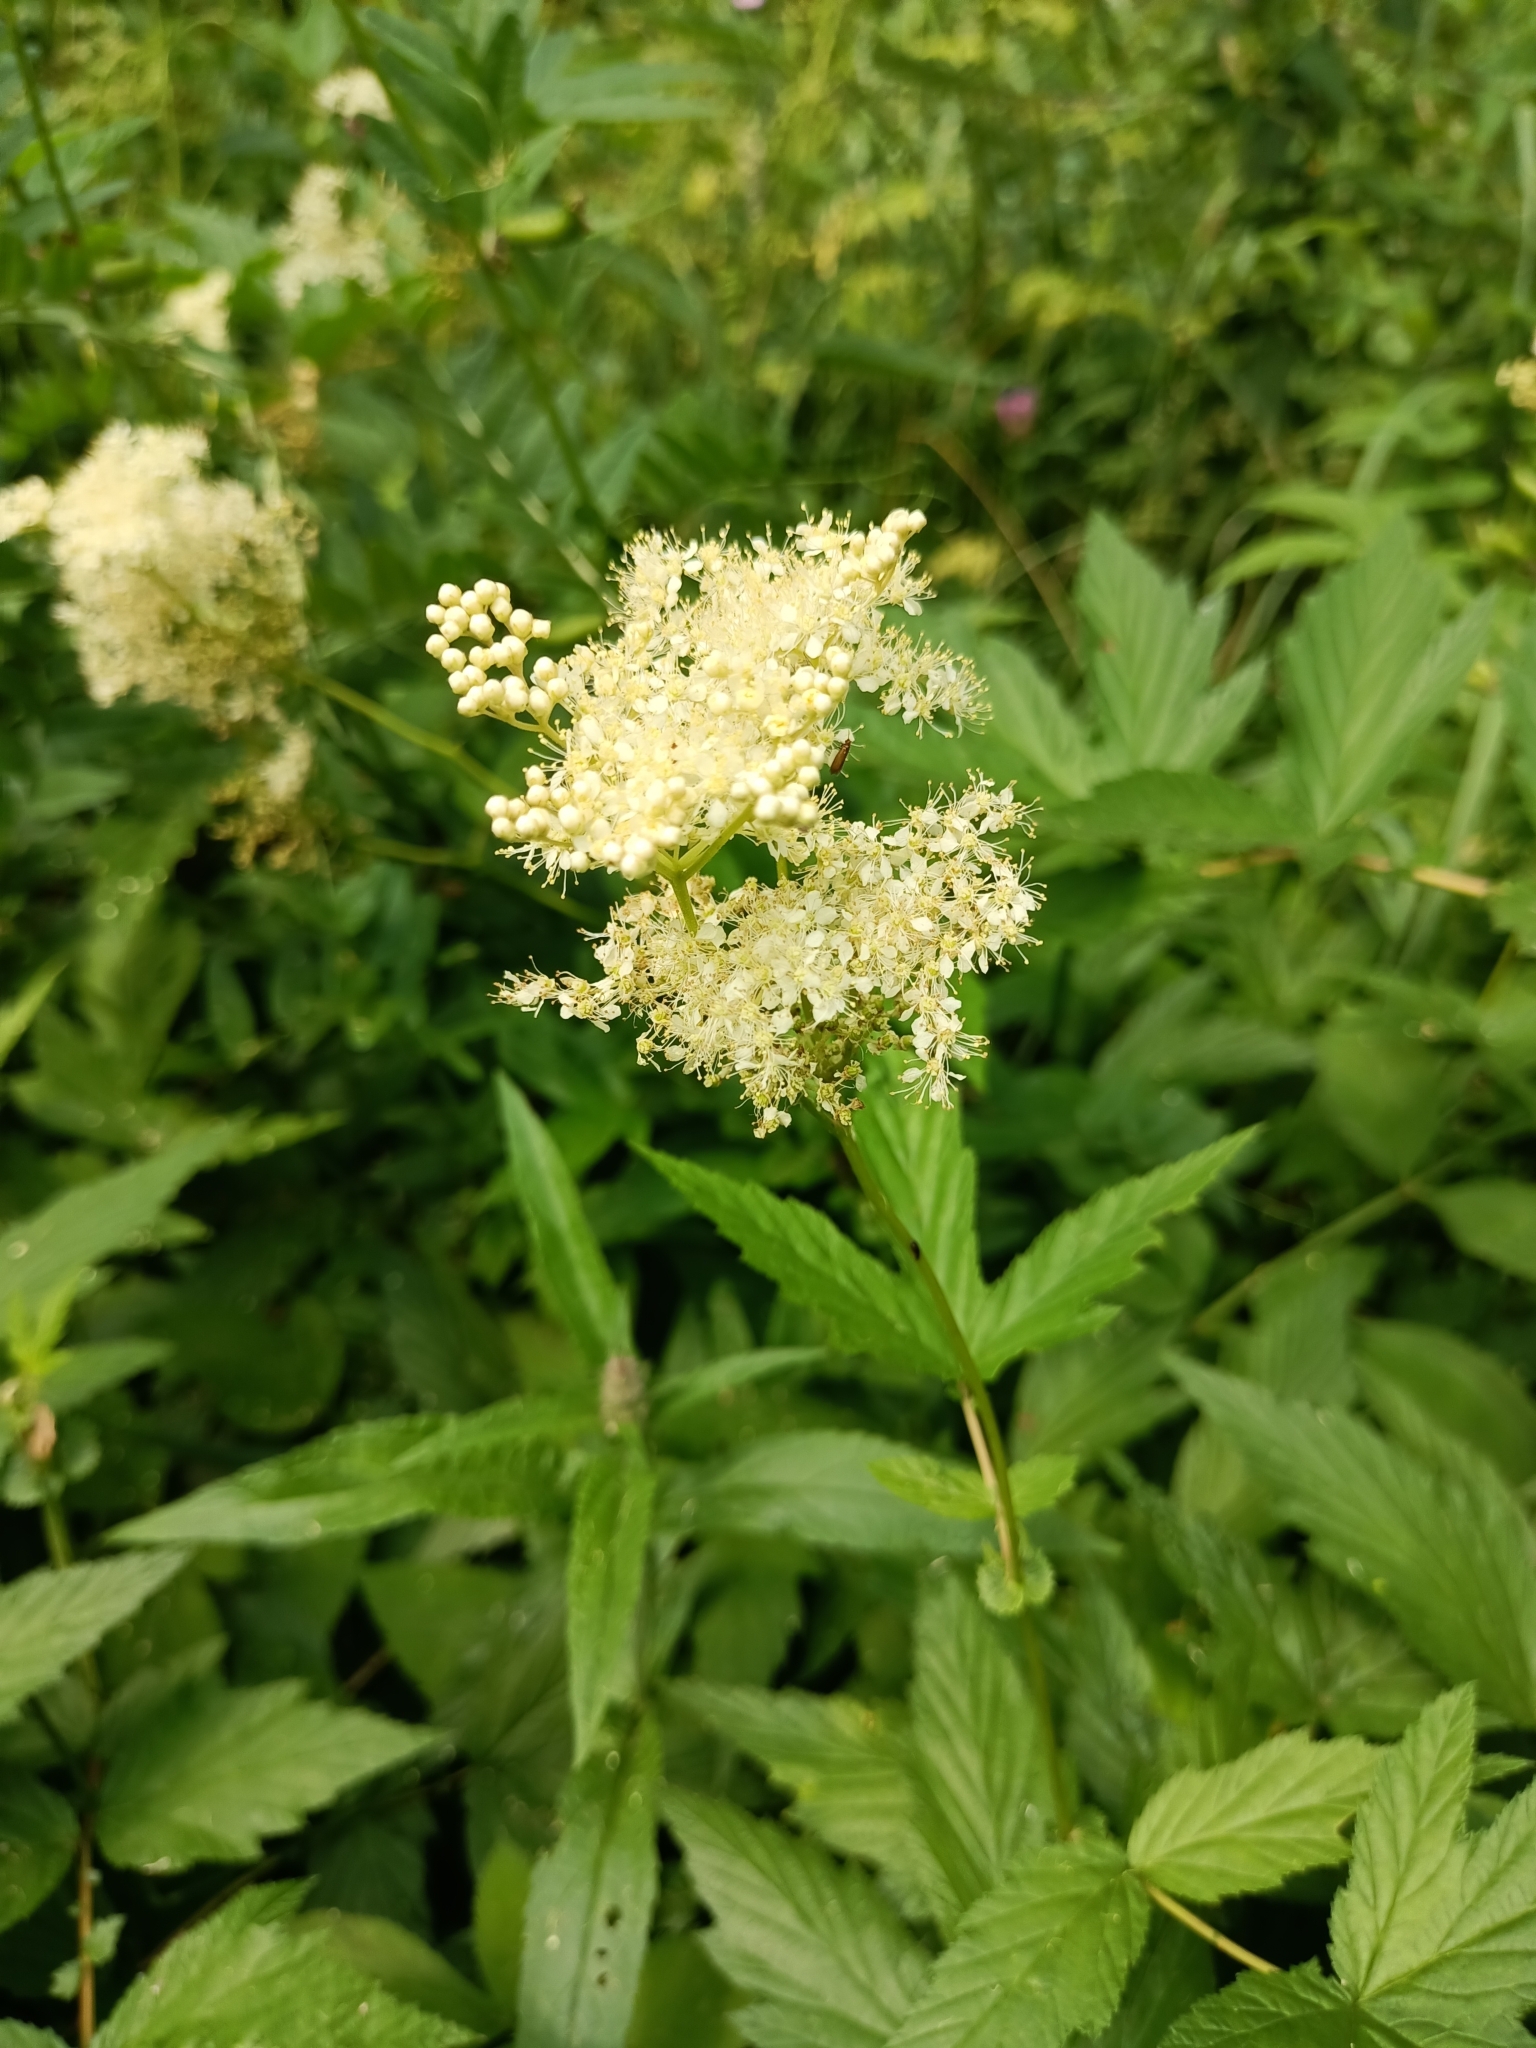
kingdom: Plantae
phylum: Tracheophyta
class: Magnoliopsida
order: Rosales
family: Rosaceae
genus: Filipendula
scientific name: Filipendula ulmaria
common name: Meadowsweet
